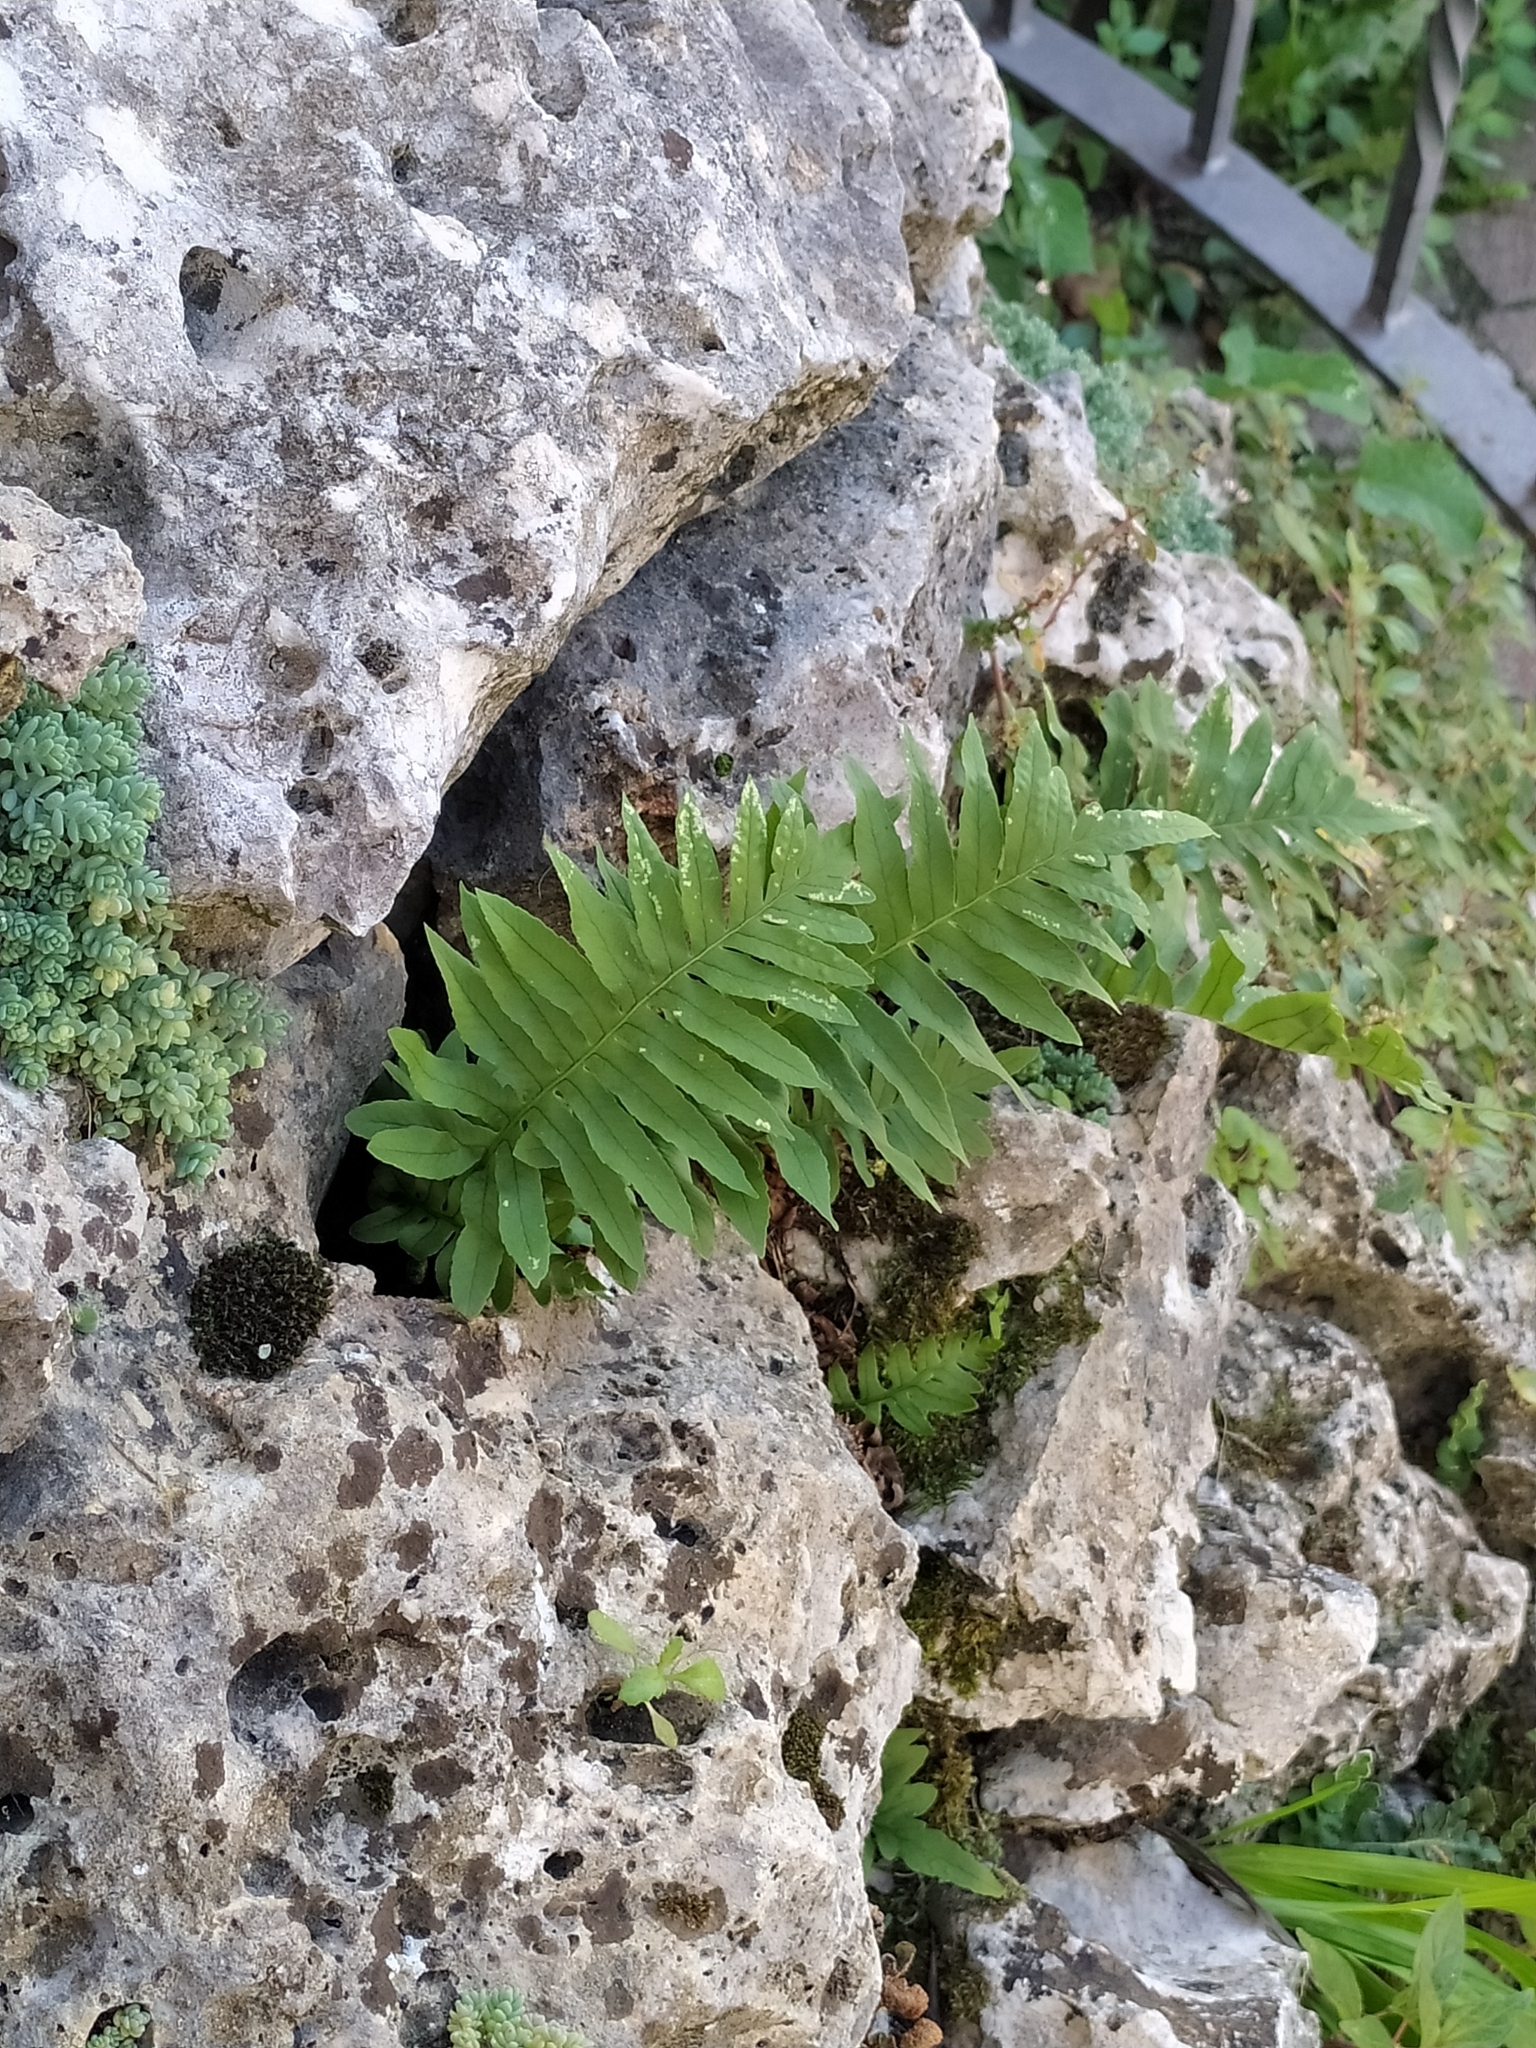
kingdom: Plantae
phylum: Tracheophyta
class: Polypodiopsida
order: Polypodiales
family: Polypodiaceae
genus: Polypodium
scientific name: Polypodium cambricum
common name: Southern polypody
